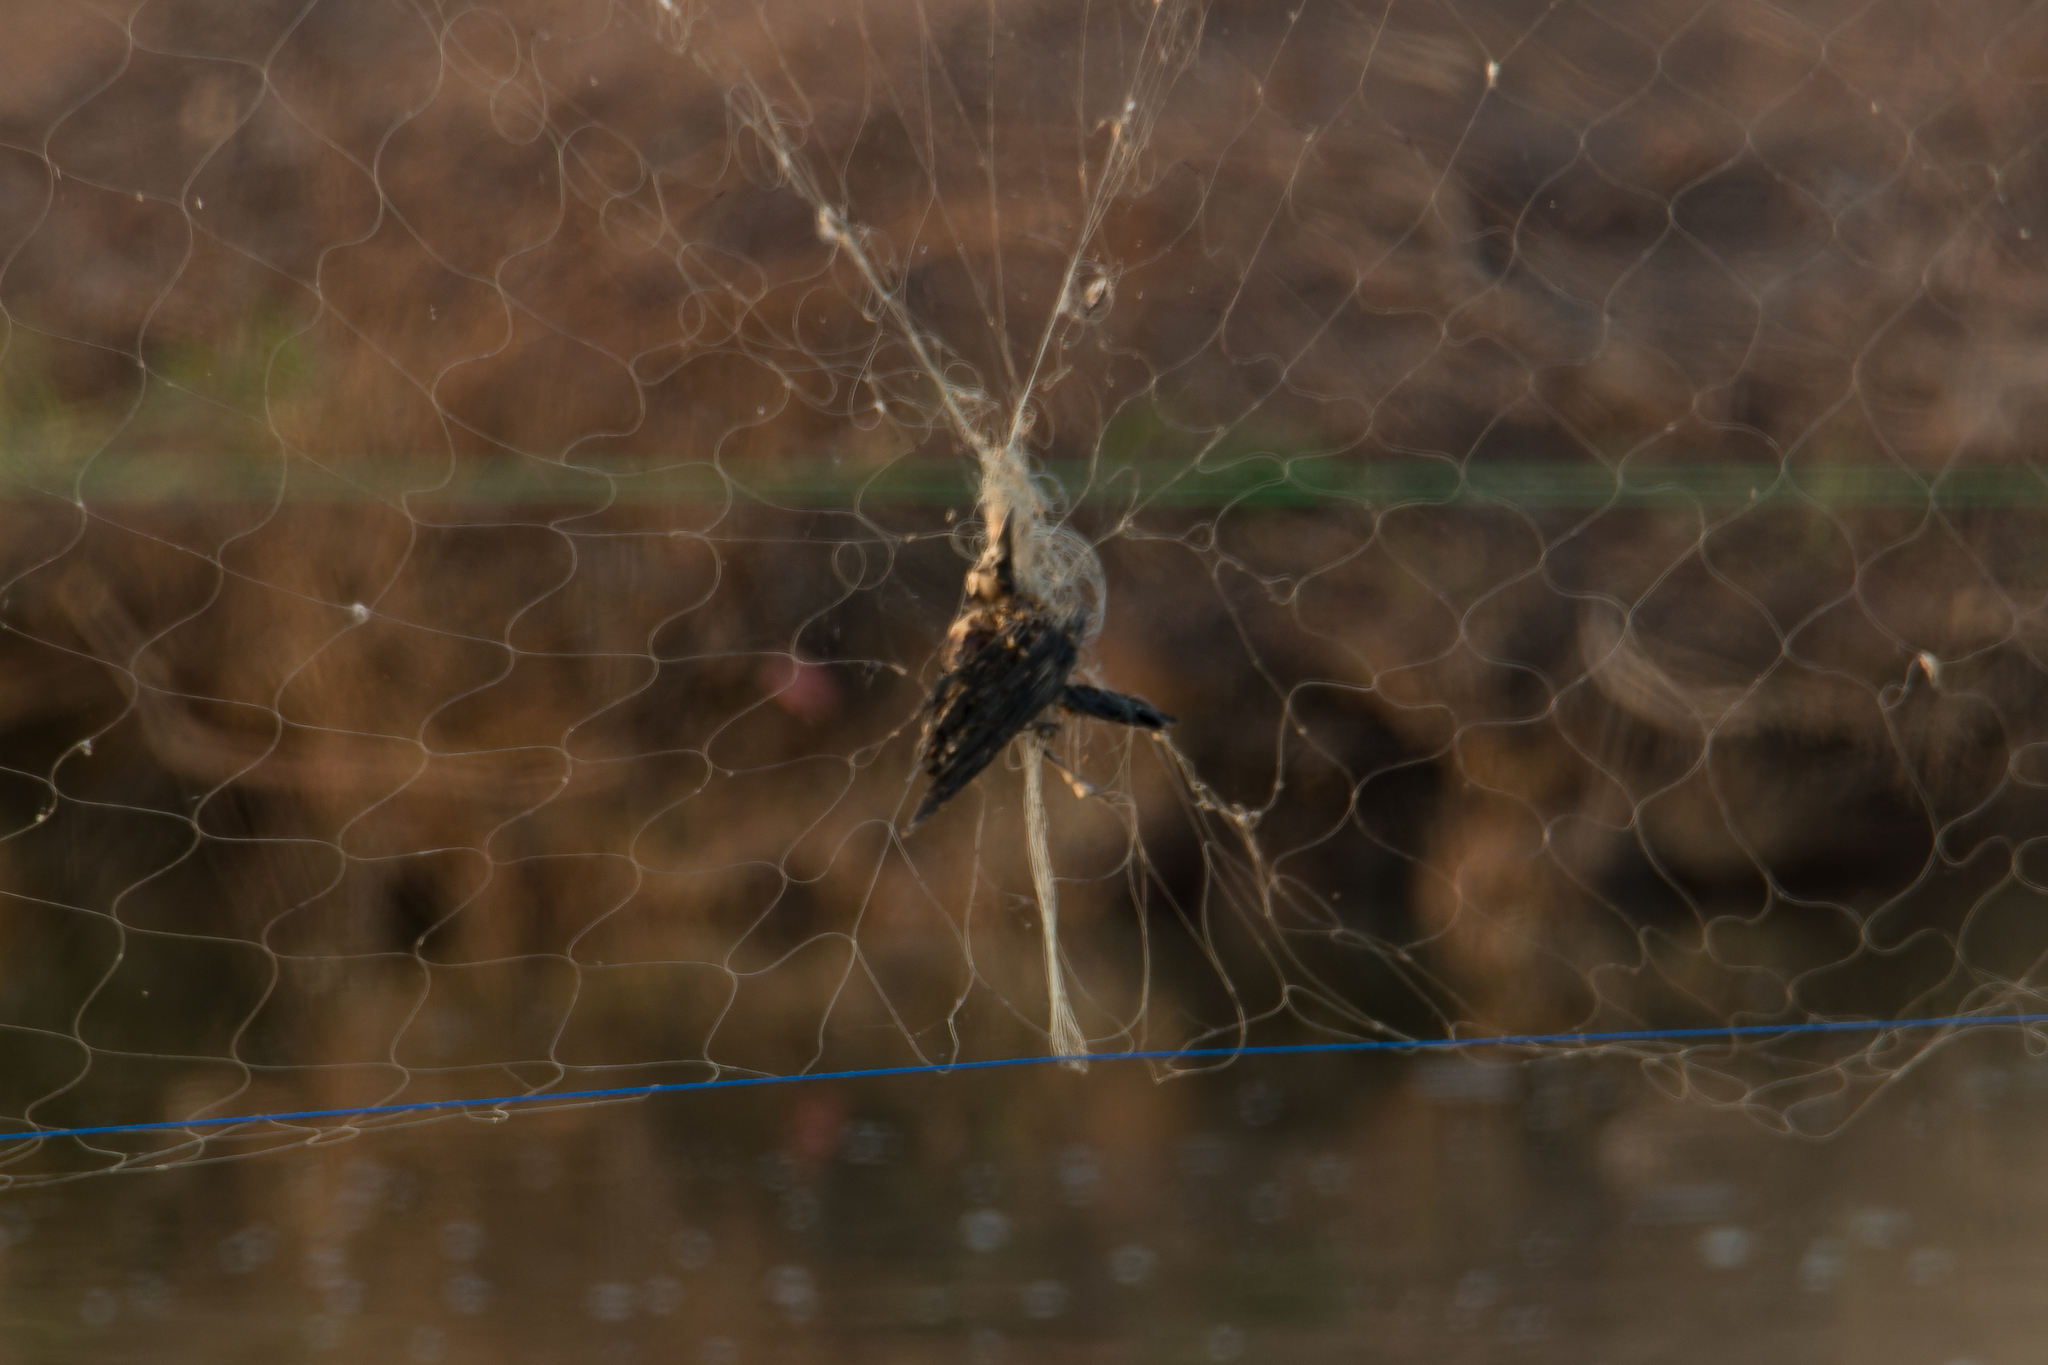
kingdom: Animalia
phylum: Chordata
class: Aves
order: Passeriformes
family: Dicruridae
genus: Dicrurus
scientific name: Dicrurus macrocercus
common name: Black drongo
